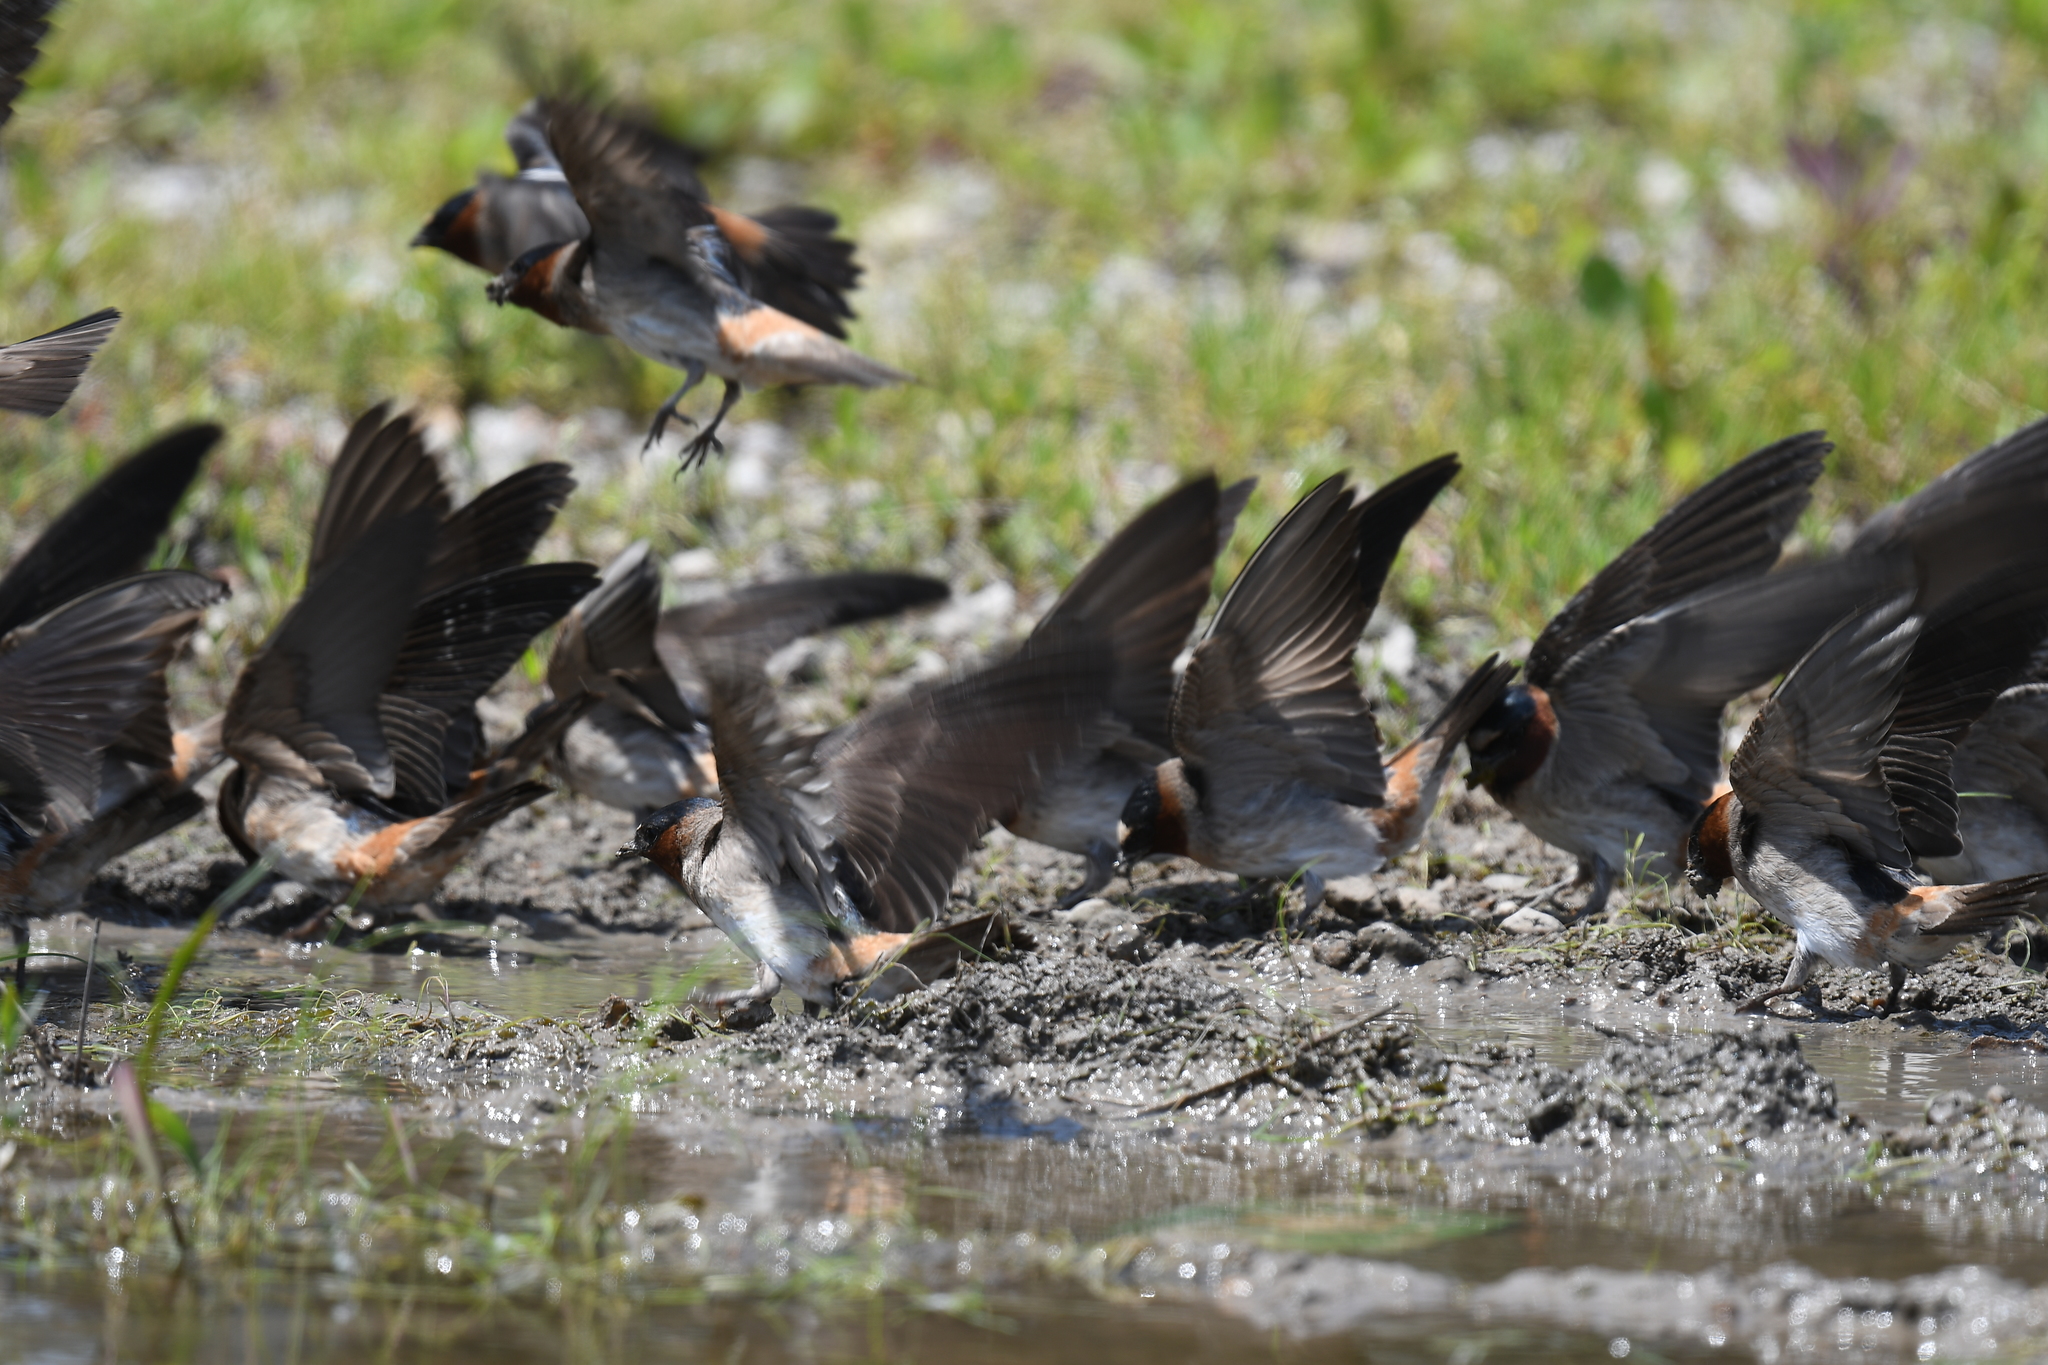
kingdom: Animalia
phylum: Chordata
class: Aves
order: Passeriformes
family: Hirundinidae
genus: Petrochelidon
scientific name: Petrochelidon pyrrhonota
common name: American cliff swallow
